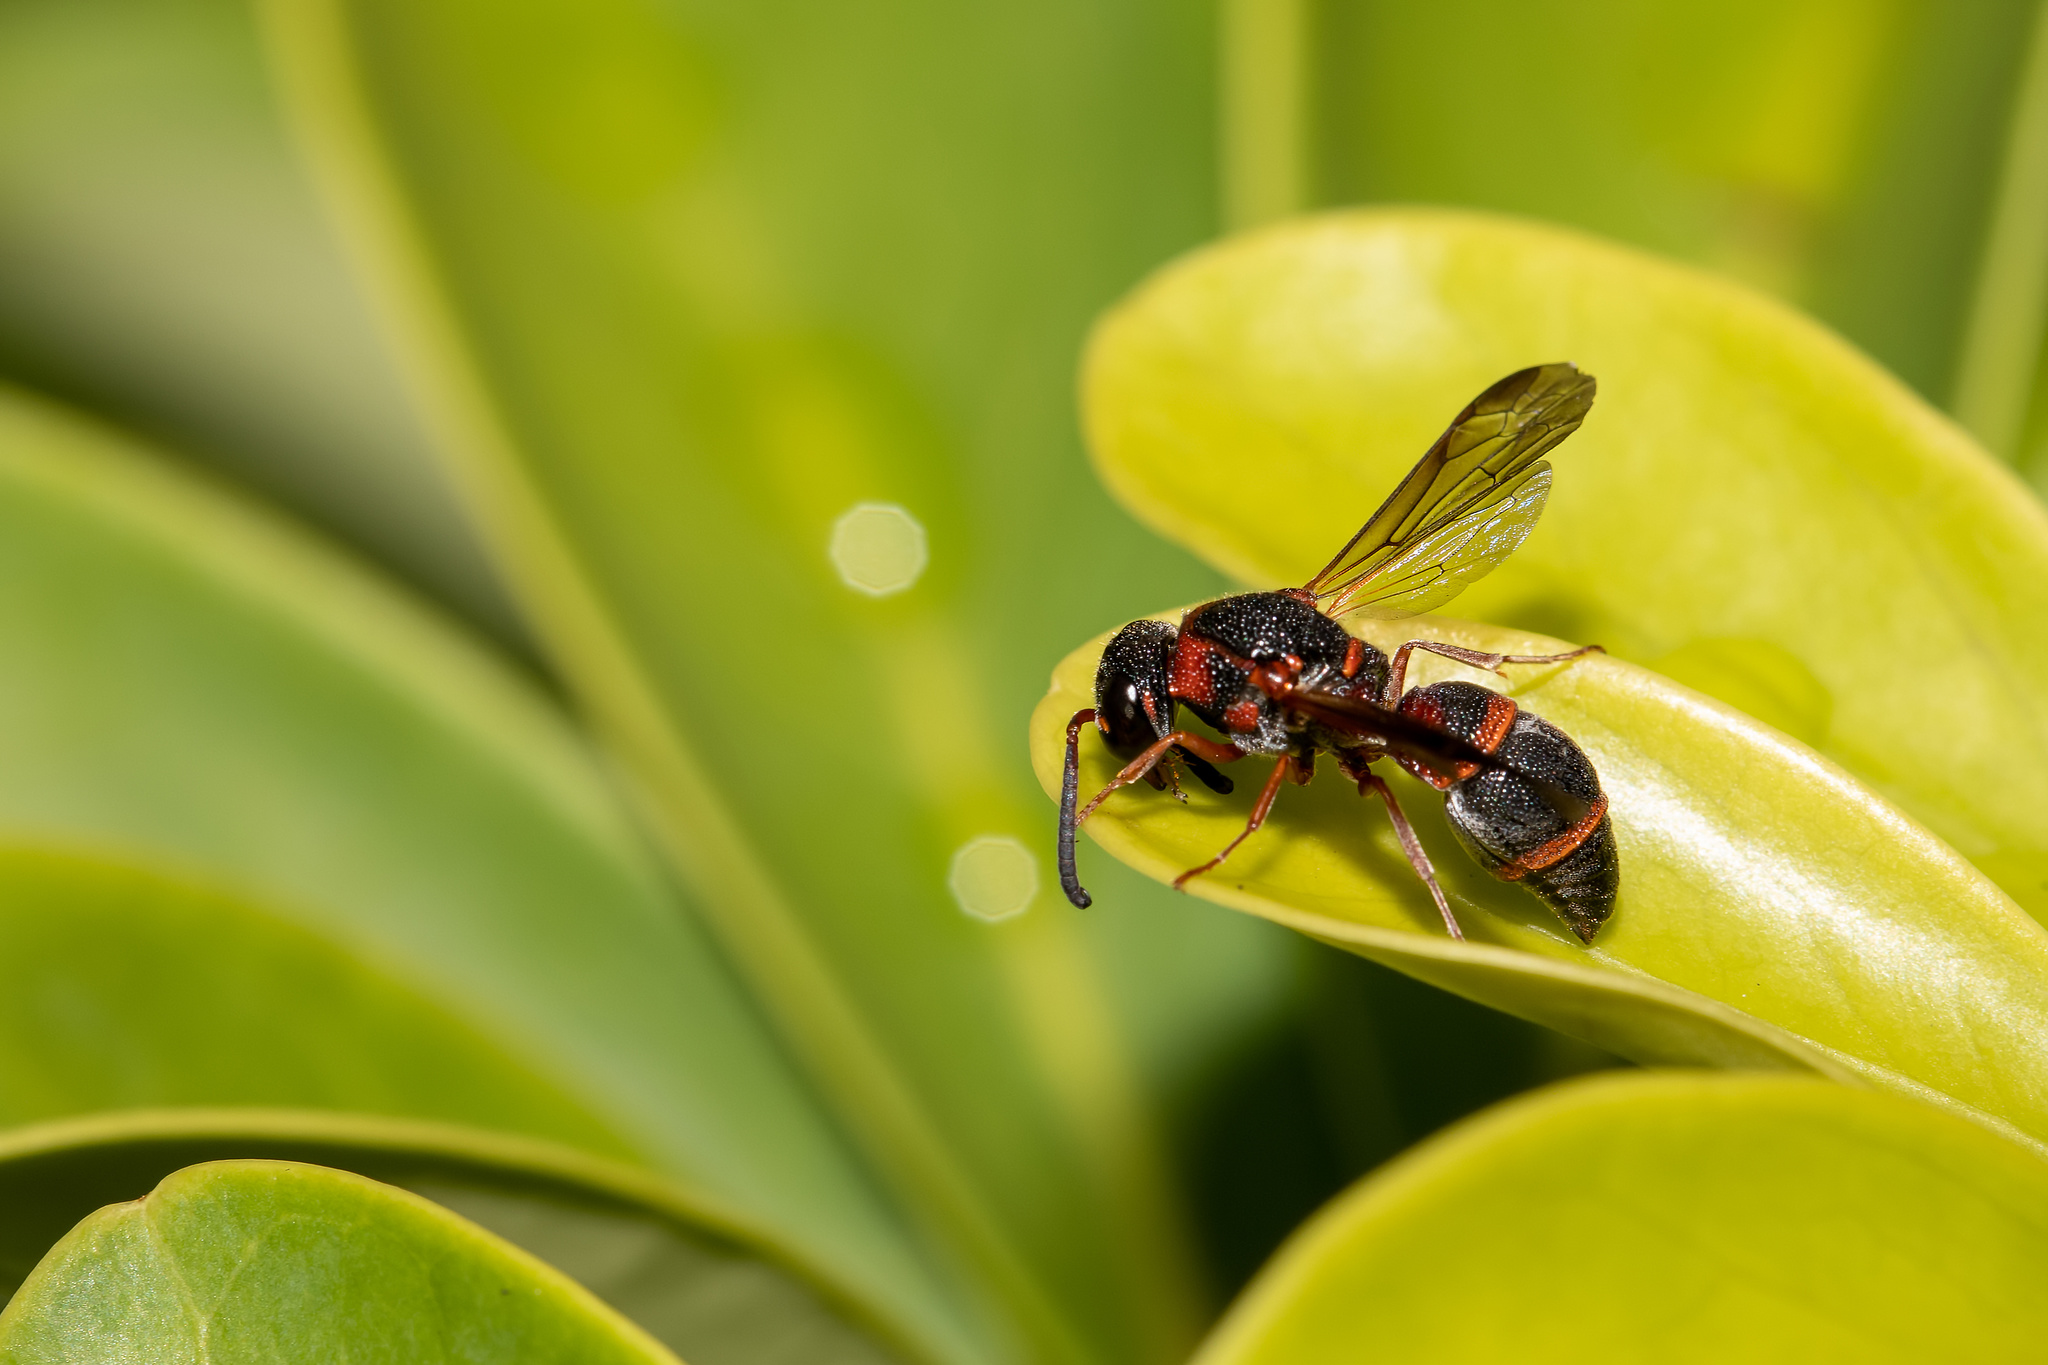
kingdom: Animalia
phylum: Arthropoda
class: Insecta
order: Hymenoptera
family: Eumenidae
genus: Parancistrocerus
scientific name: Parancistrocerus fulvipes
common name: Potter wasp
